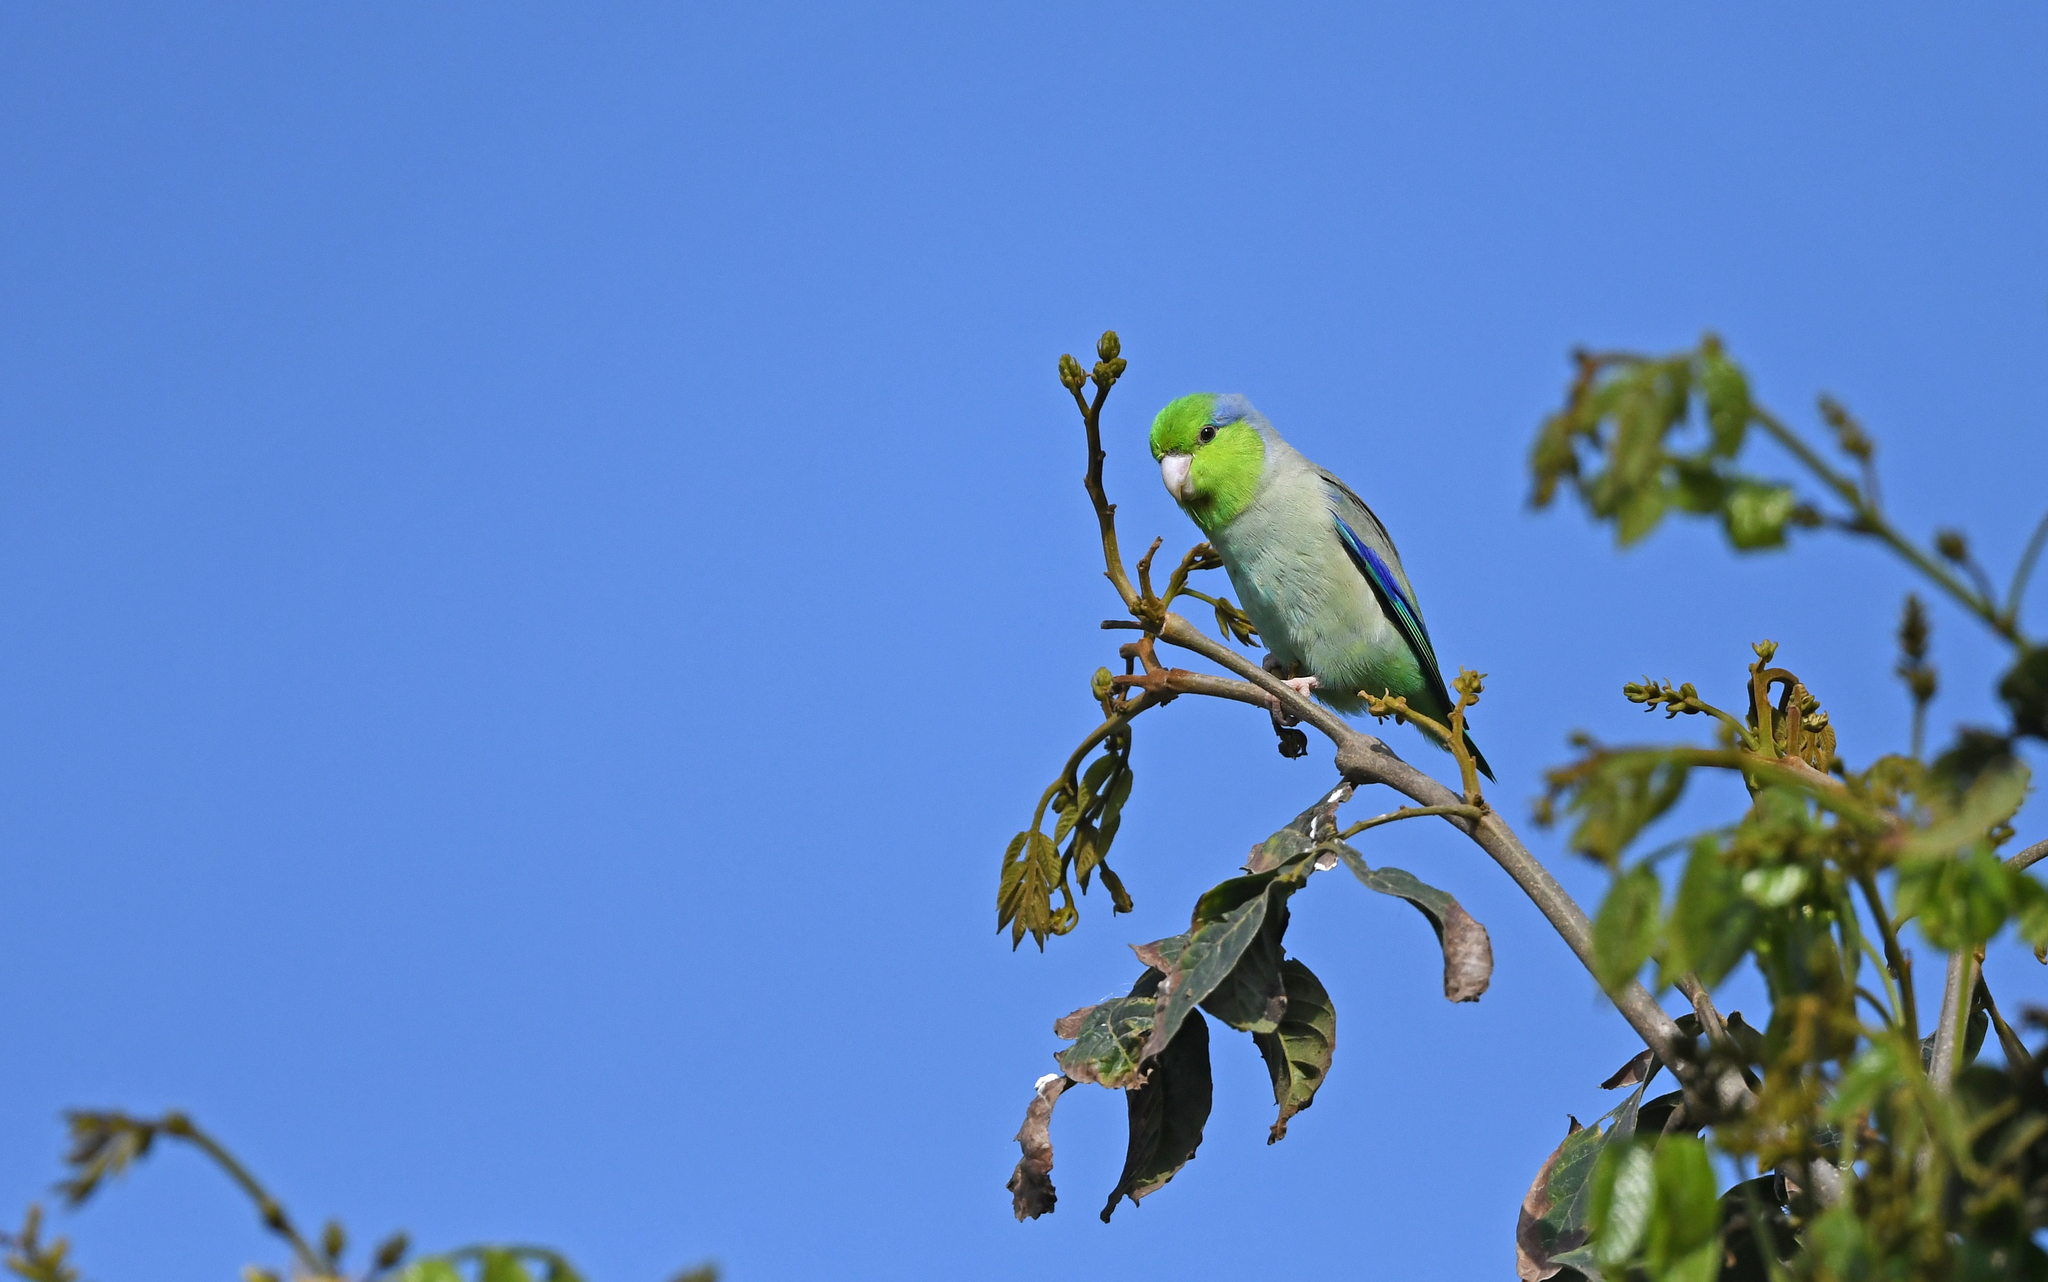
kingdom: Animalia
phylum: Chordata
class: Aves
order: Psittaciformes
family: Psittacidae
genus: Forpus
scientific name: Forpus coelestis
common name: Pacific parrotlet
